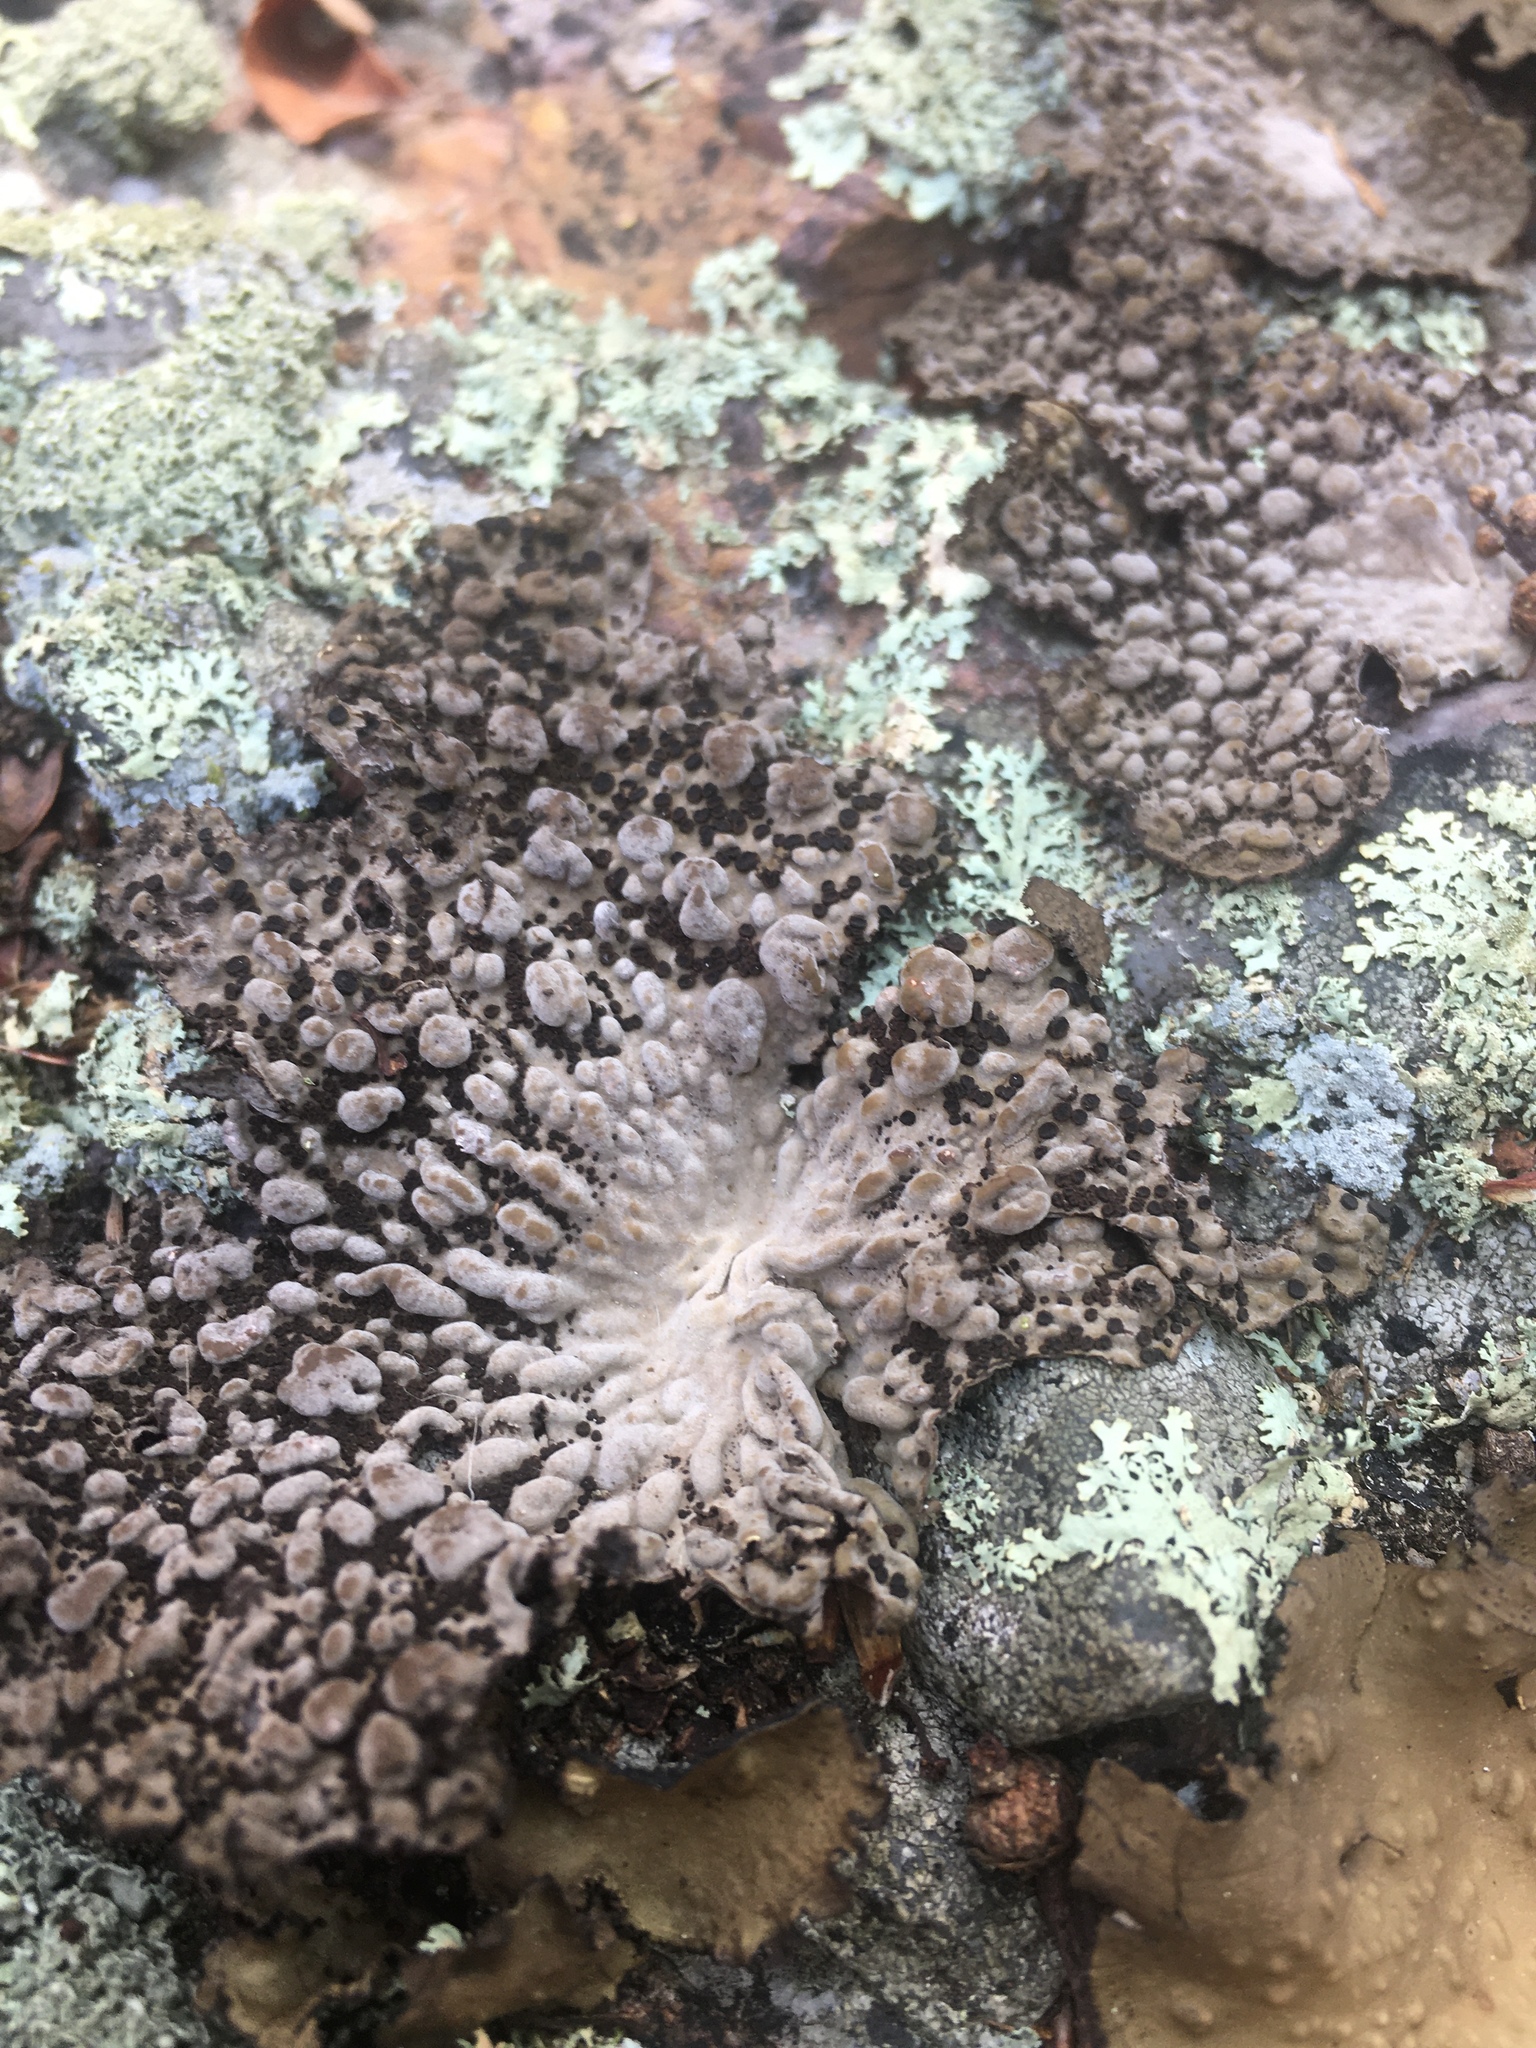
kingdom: Fungi
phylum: Ascomycota
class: Lecanoromycetes
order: Umbilicariales
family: Umbilicariaceae
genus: Lasallia
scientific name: Lasallia papulosa
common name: Common toadskin lichen
